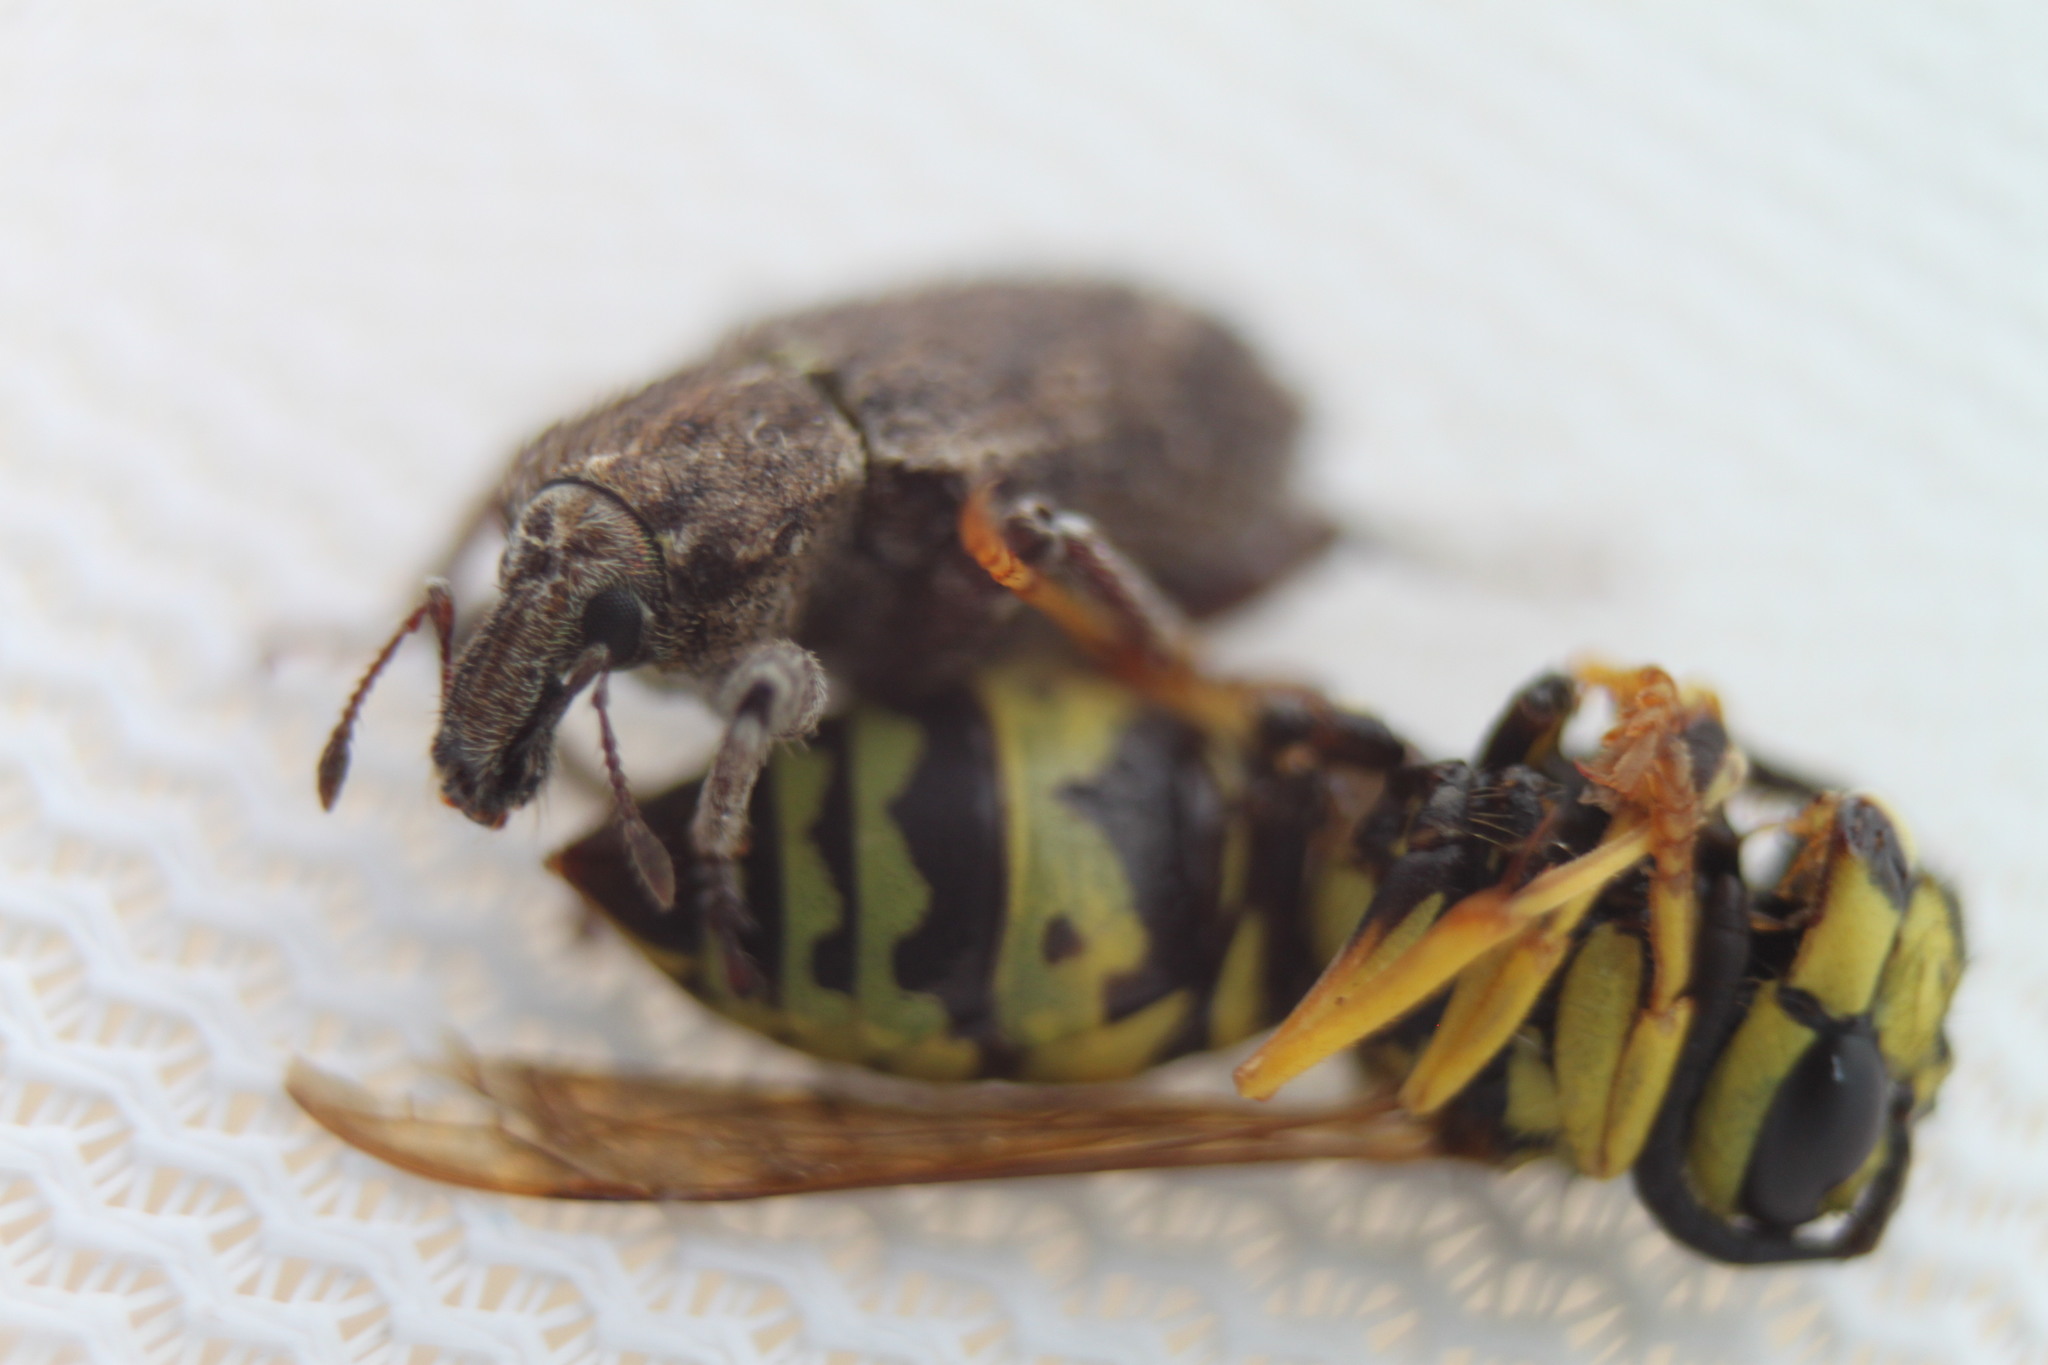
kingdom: Animalia
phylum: Arthropoda
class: Insecta
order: Hymenoptera
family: Vespidae
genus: Vespula
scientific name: Vespula
